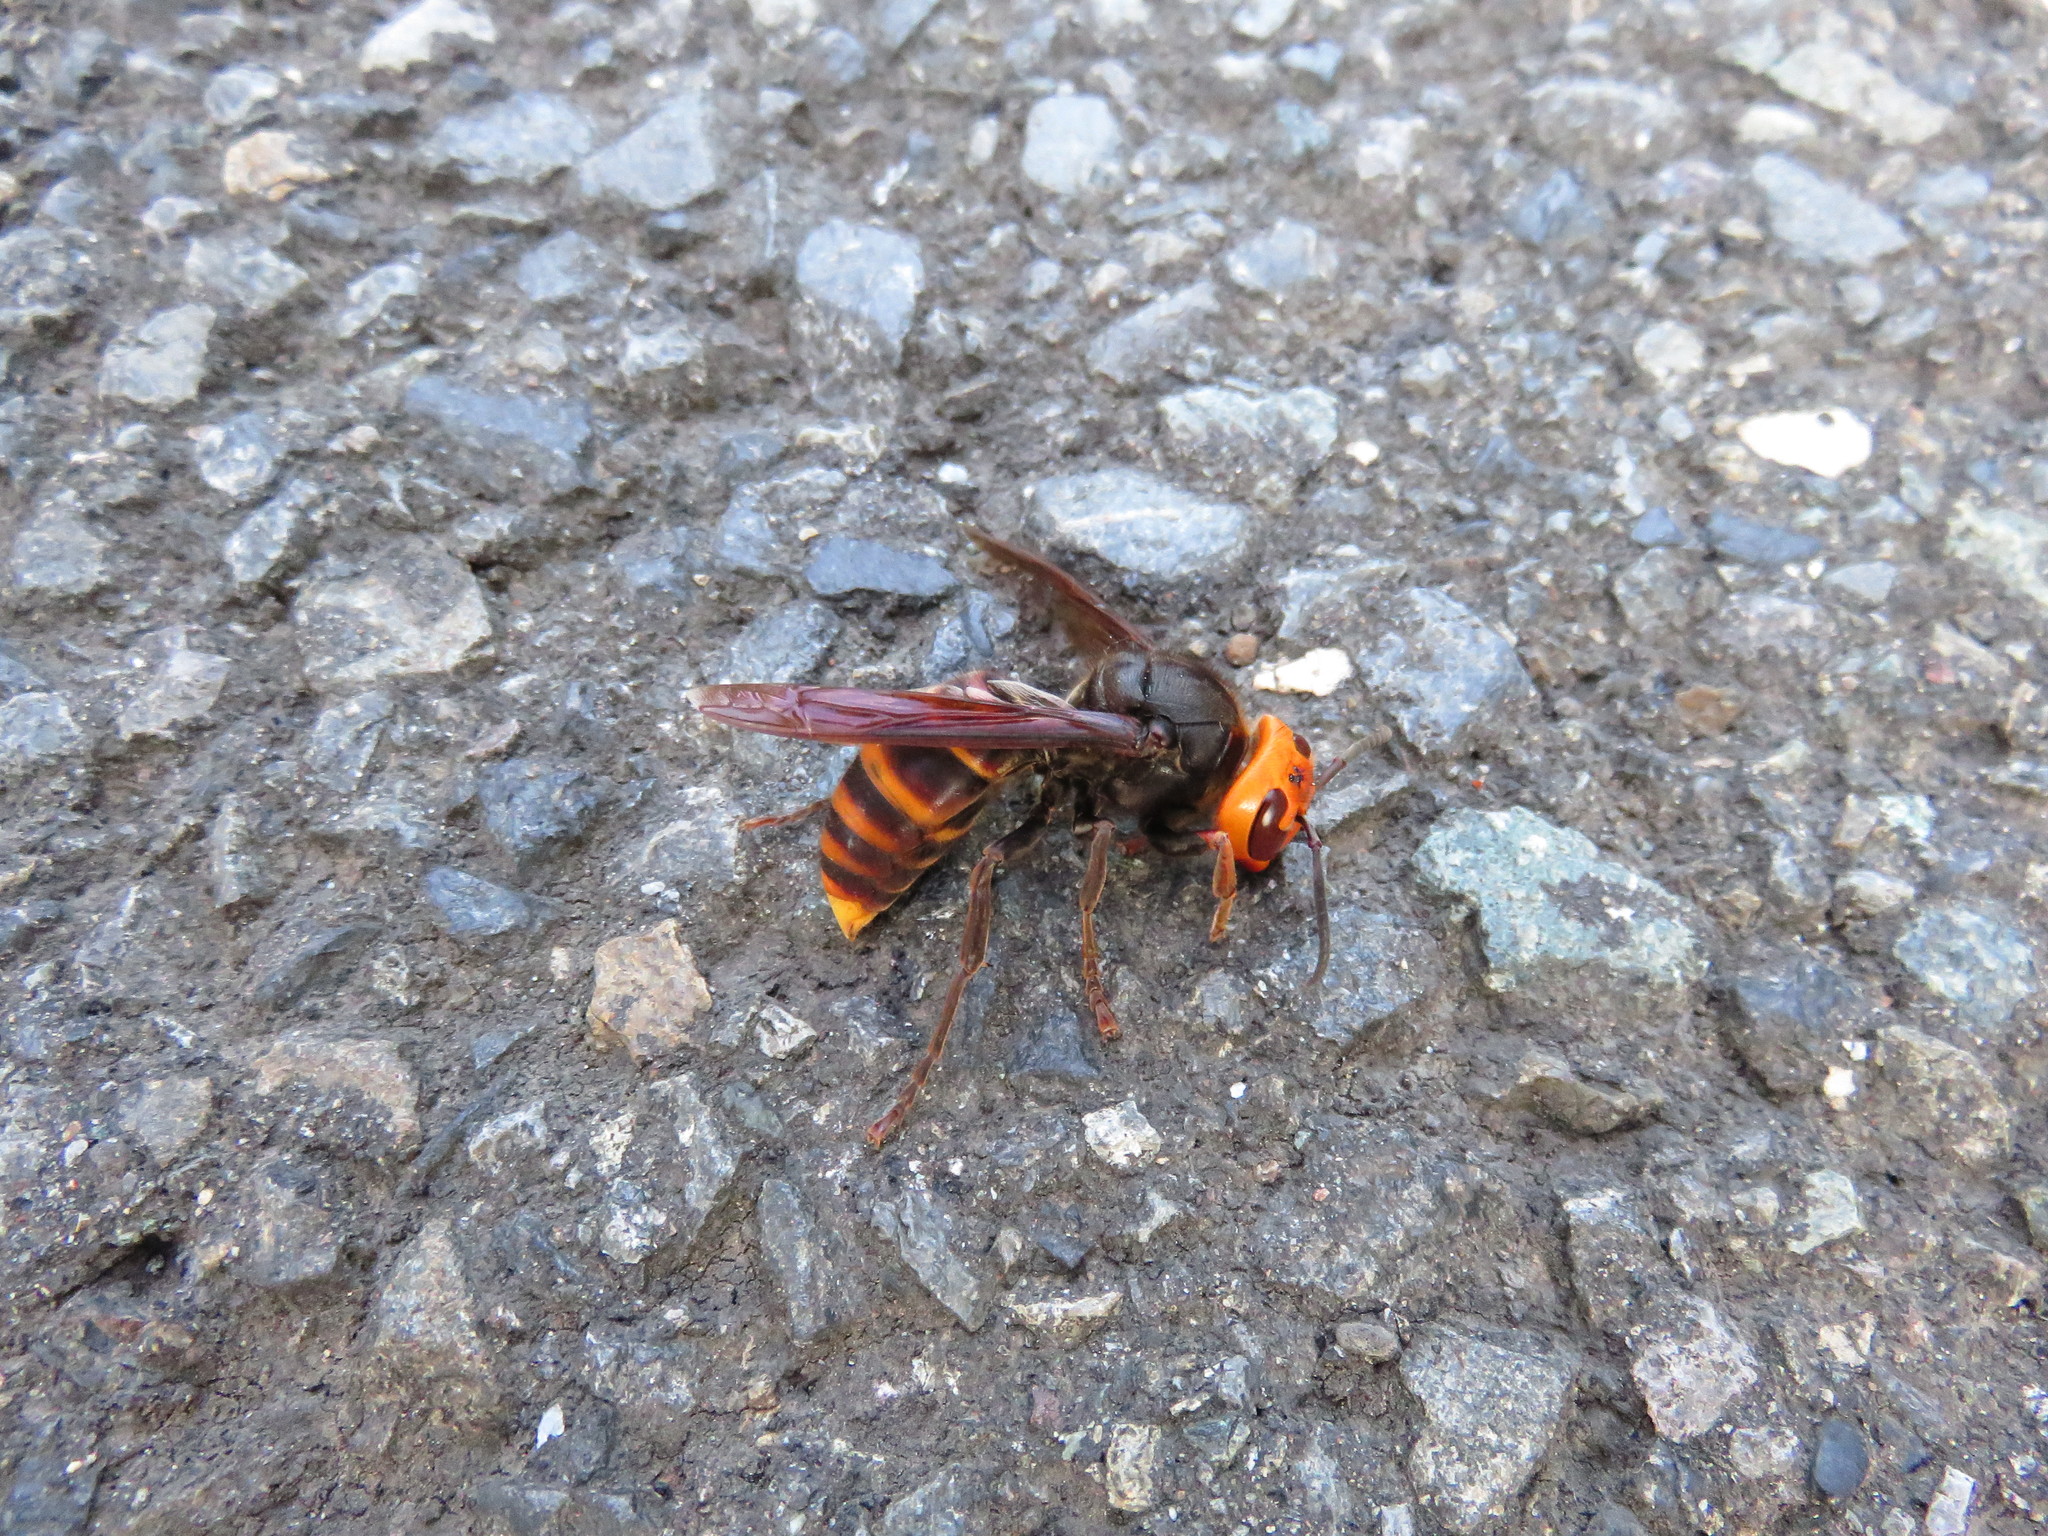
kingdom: Animalia
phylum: Arthropoda
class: Insecta
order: Hymenoptera
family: Vespidae
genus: Vespa
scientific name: Vespa analis
